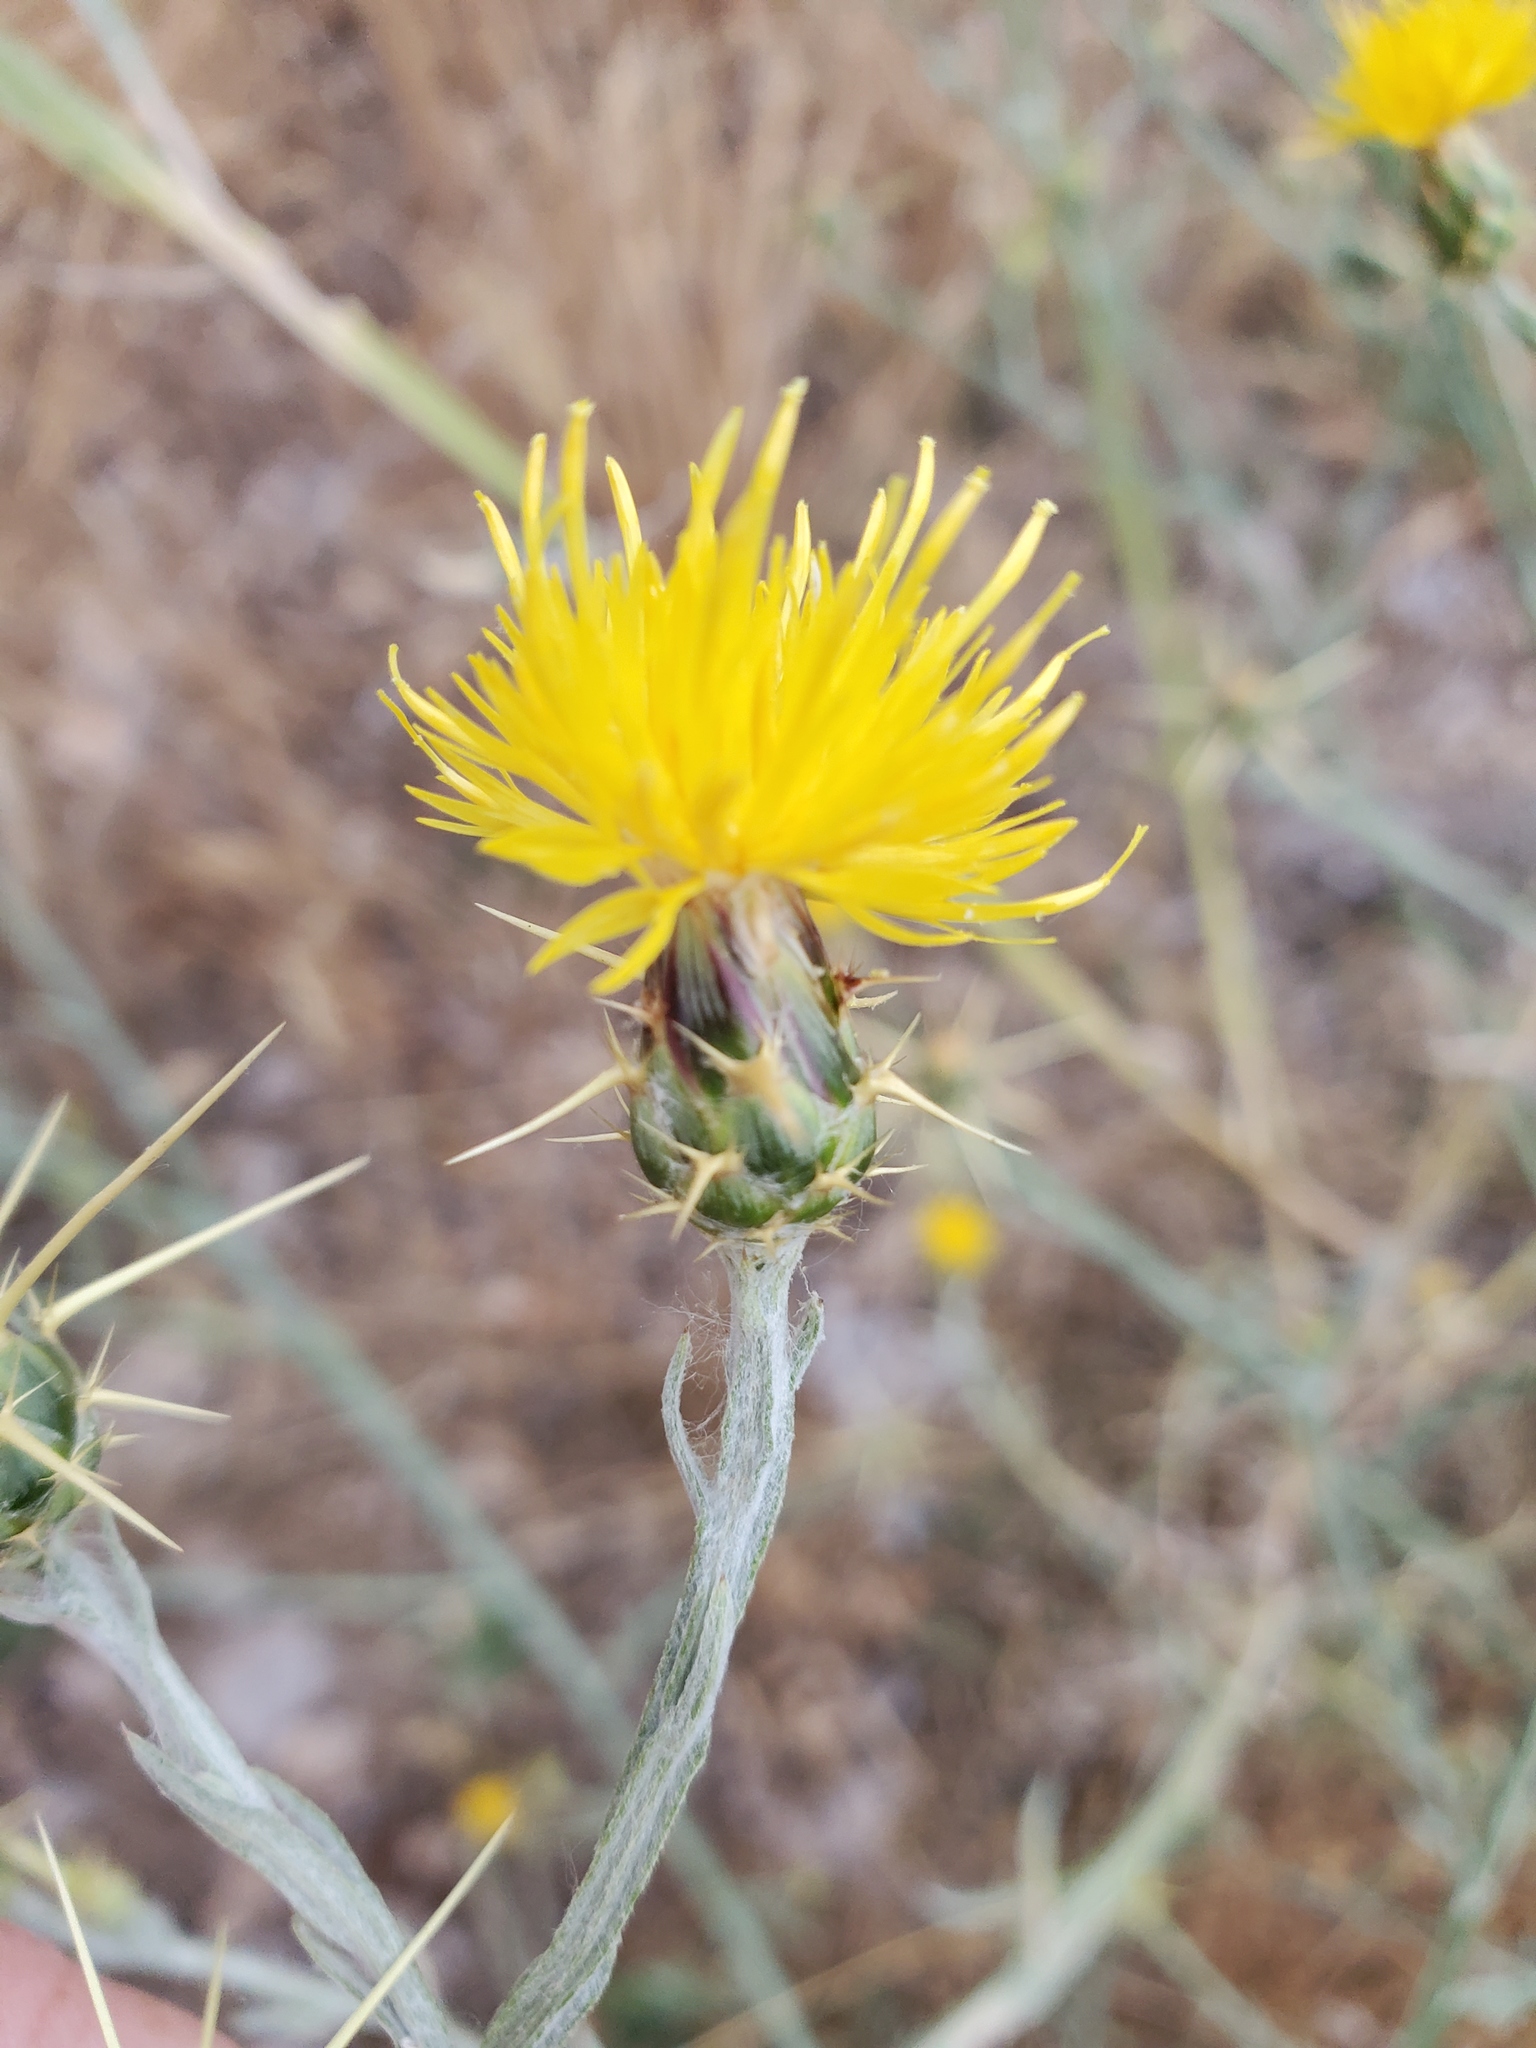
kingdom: Plantae
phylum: Tracheophyta
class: Magnoliopsida
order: Asterales
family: Asteraceae
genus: Centaurea
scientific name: Centaurea solstitialis
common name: Yellow star-thistle
